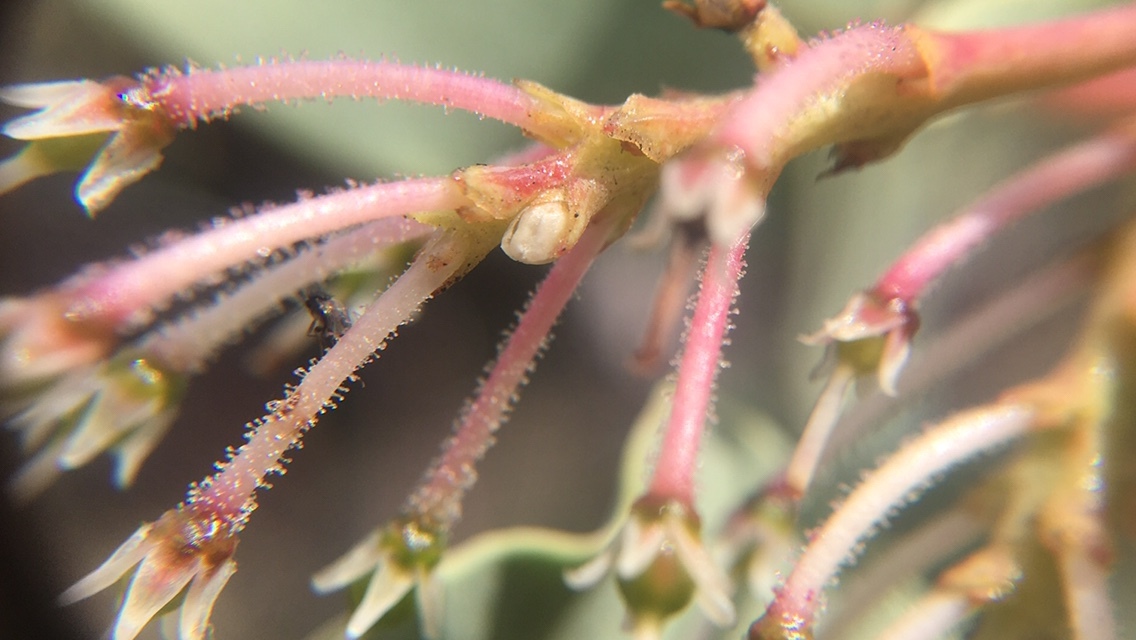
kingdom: Plantae
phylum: Tracheophyta
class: Magnoliopsida
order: Ericales
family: Ericaceae
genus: Arctostaphylos
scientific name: Arctostaphylos viscida
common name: White-leaf manzanita
